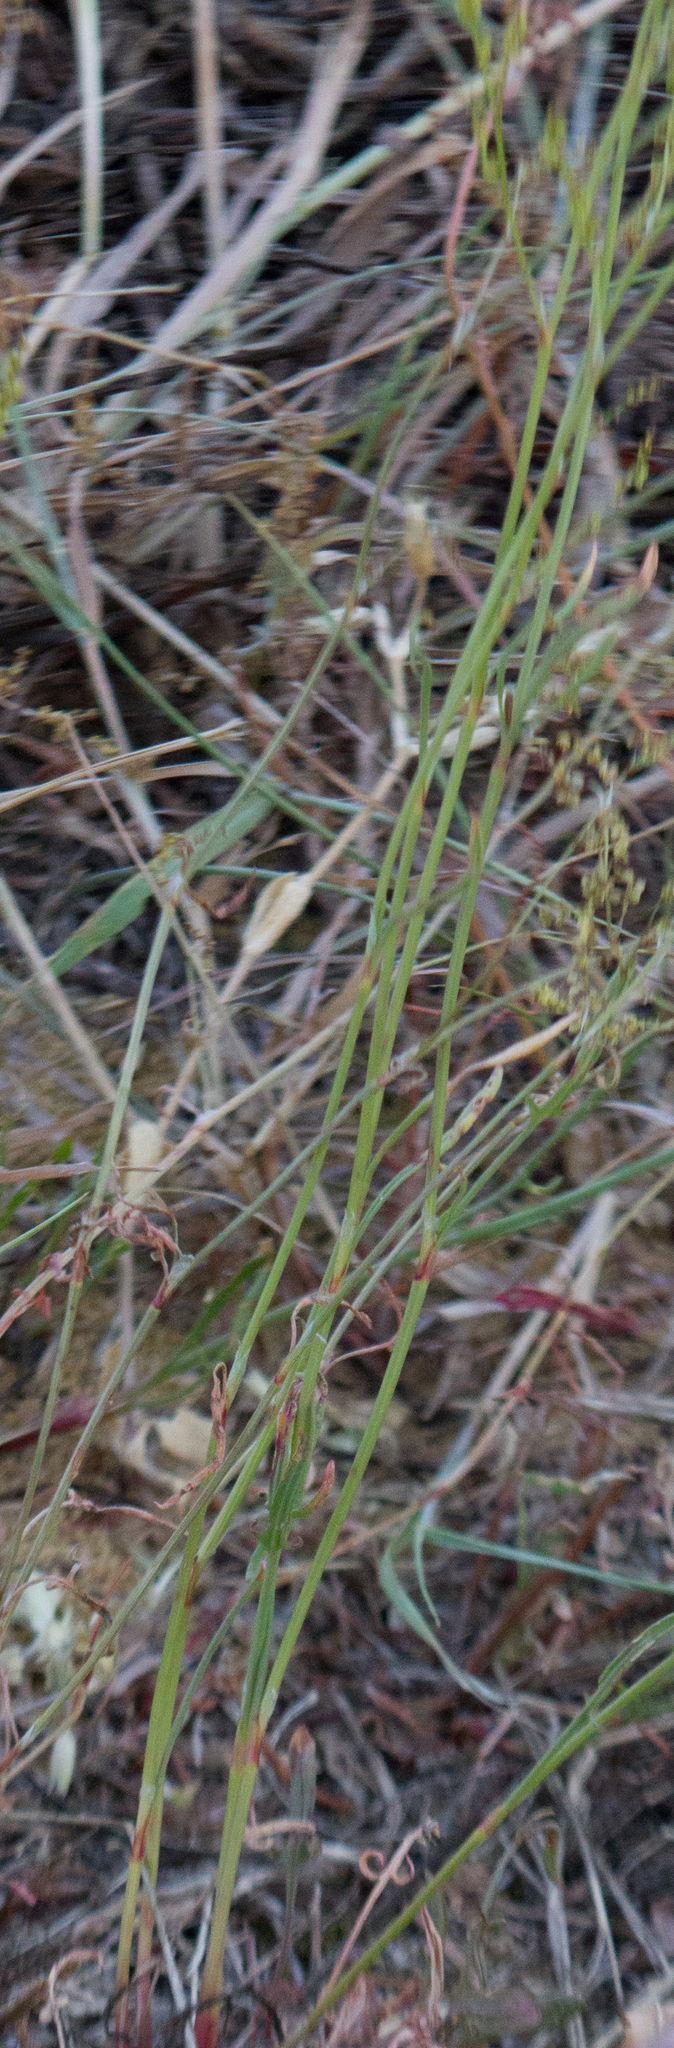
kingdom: Plantae
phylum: Tracheophyta
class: Magnoliopsida
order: Caryophyllales
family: Polygonaceae
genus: Rumex
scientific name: Rumex acetosella
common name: Common sheep sorrel
